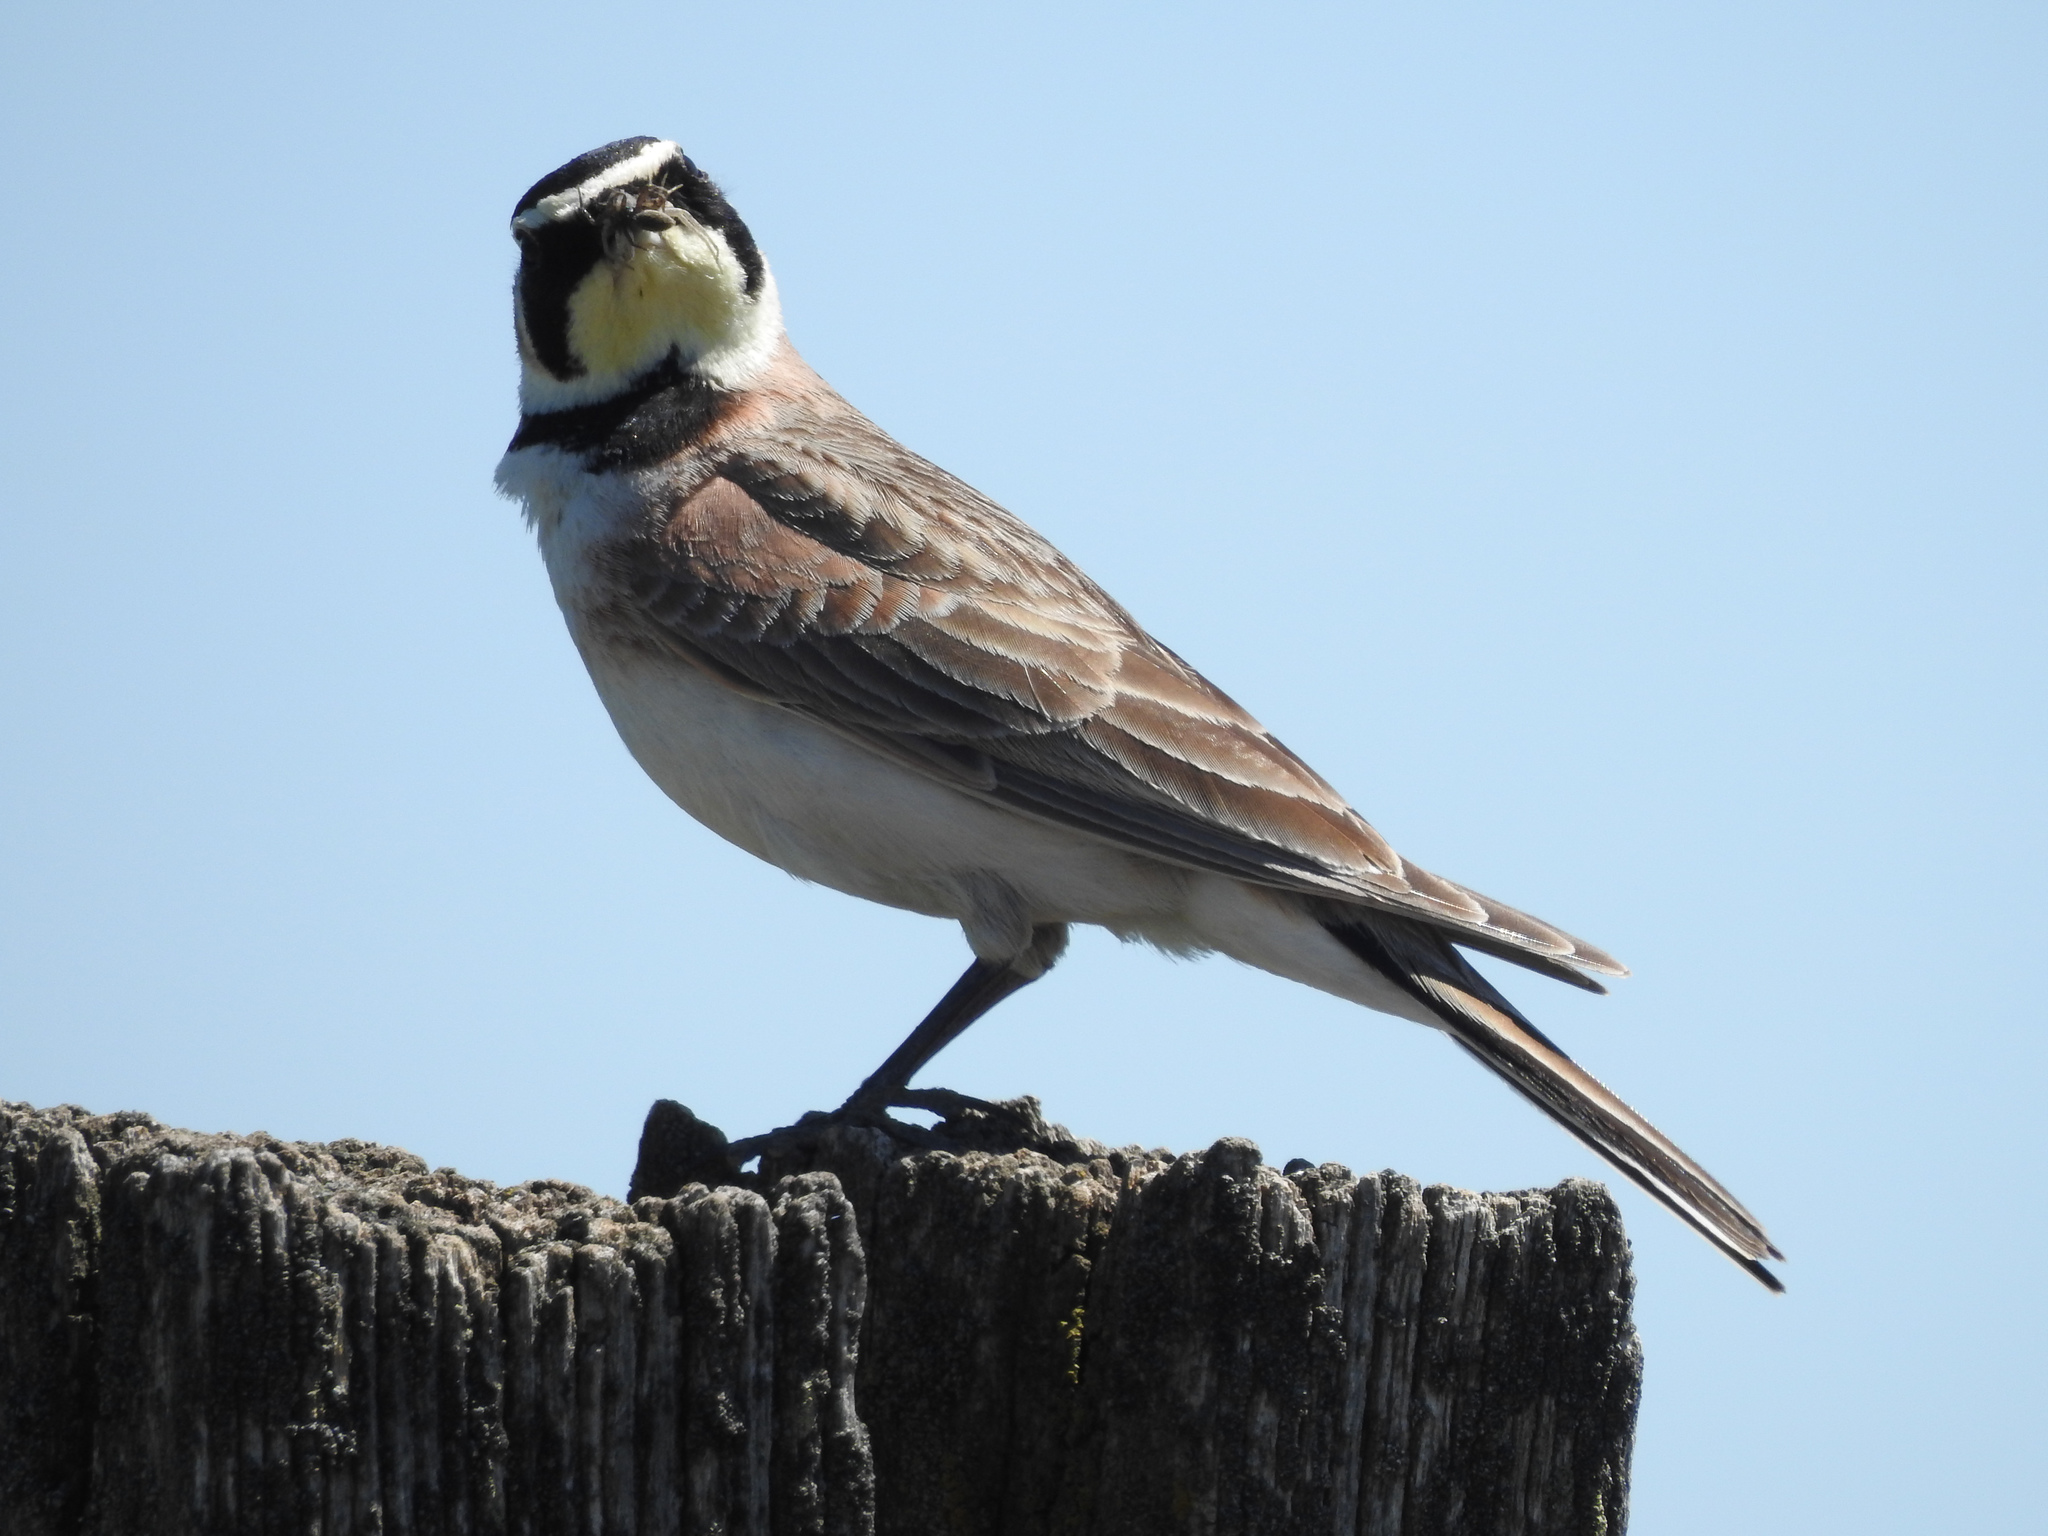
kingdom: Animalia
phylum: Chordata
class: Aves
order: Passeriformes
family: Alaudidae
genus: Eremophila
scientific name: Eremophila alpestris
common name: Horned lark
